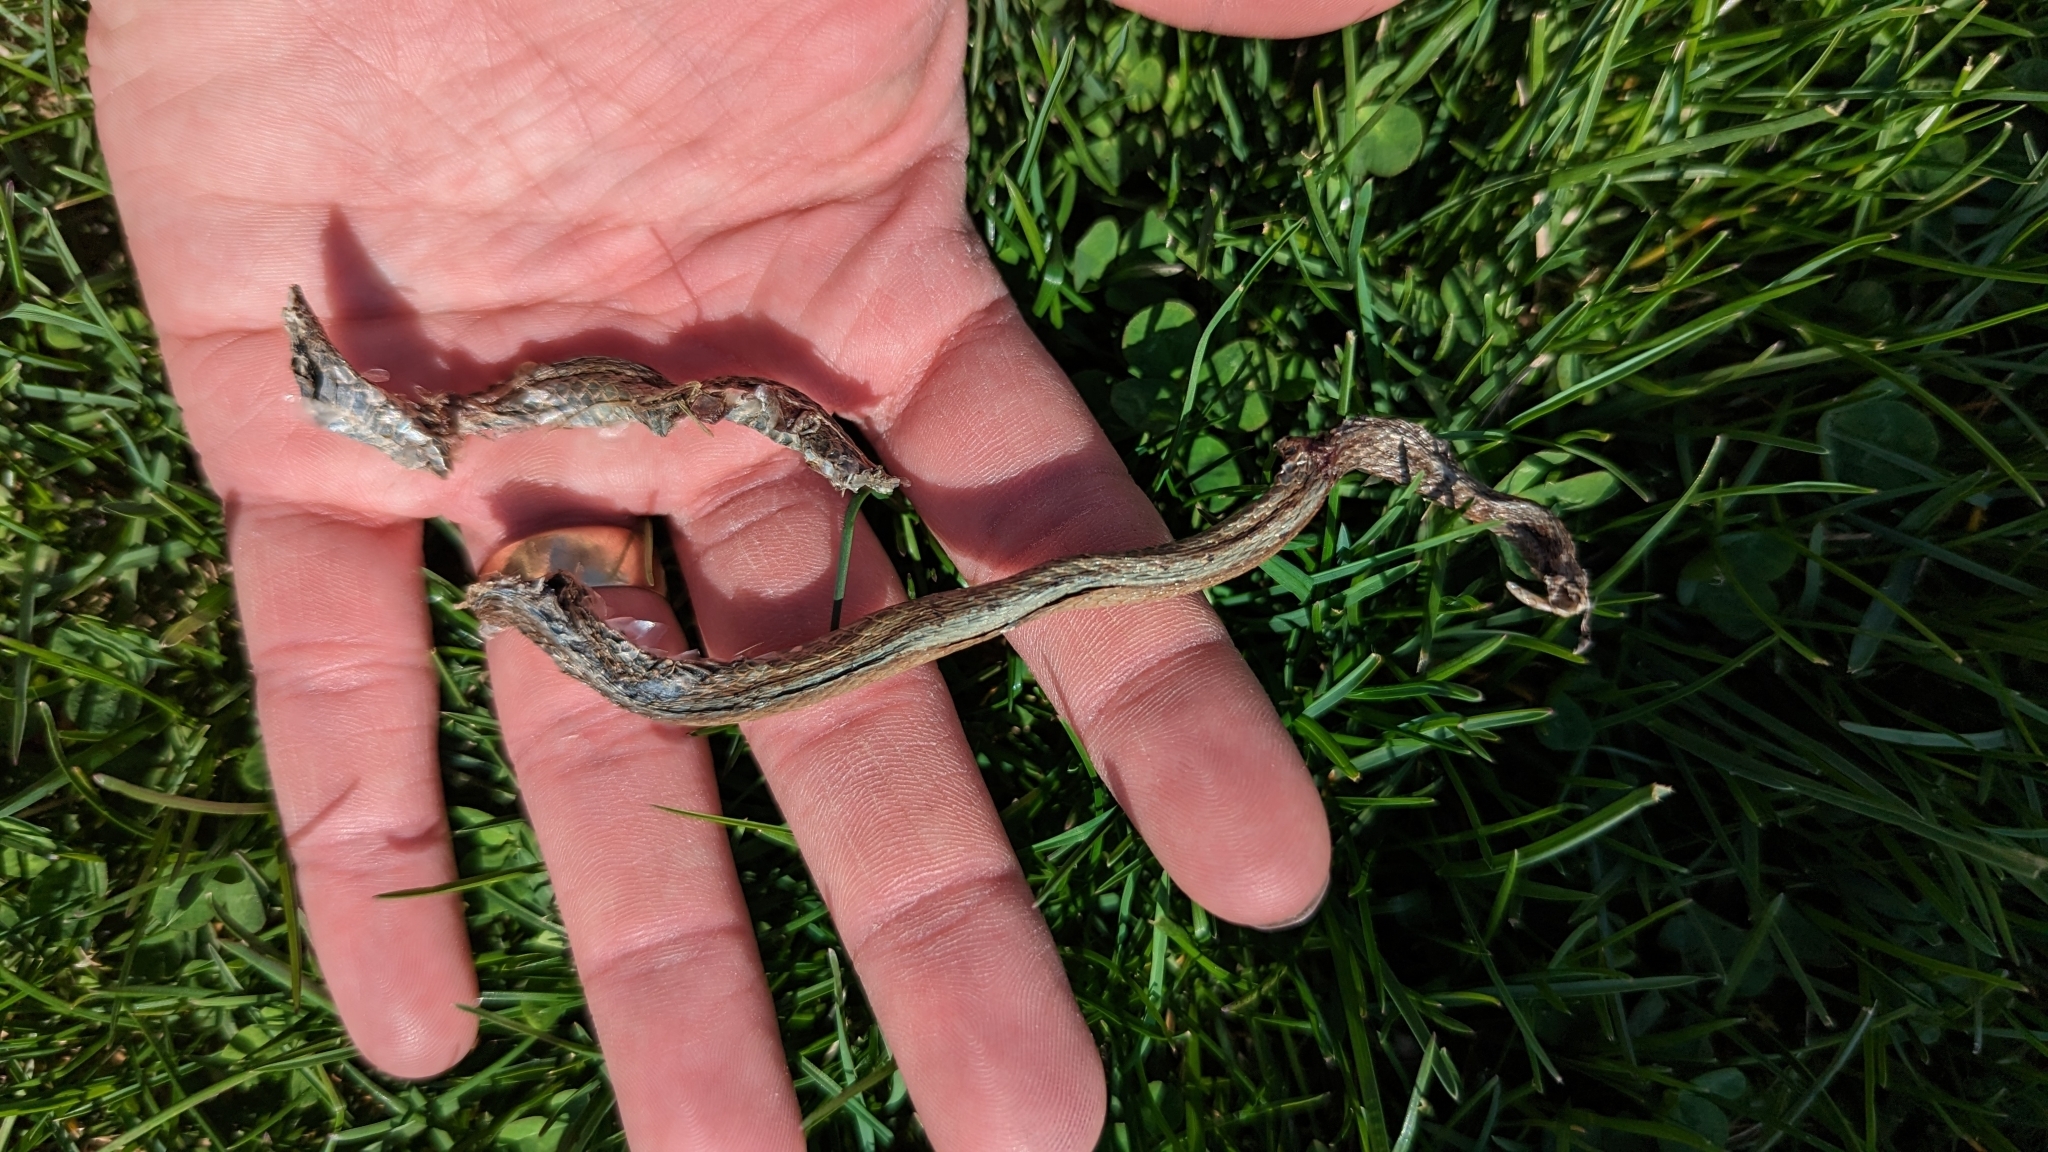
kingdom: Animalia
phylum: Chordata
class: Squamata
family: Colubridae
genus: Storeria
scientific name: Storeria dekayi
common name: (dekay’s) brown snake
